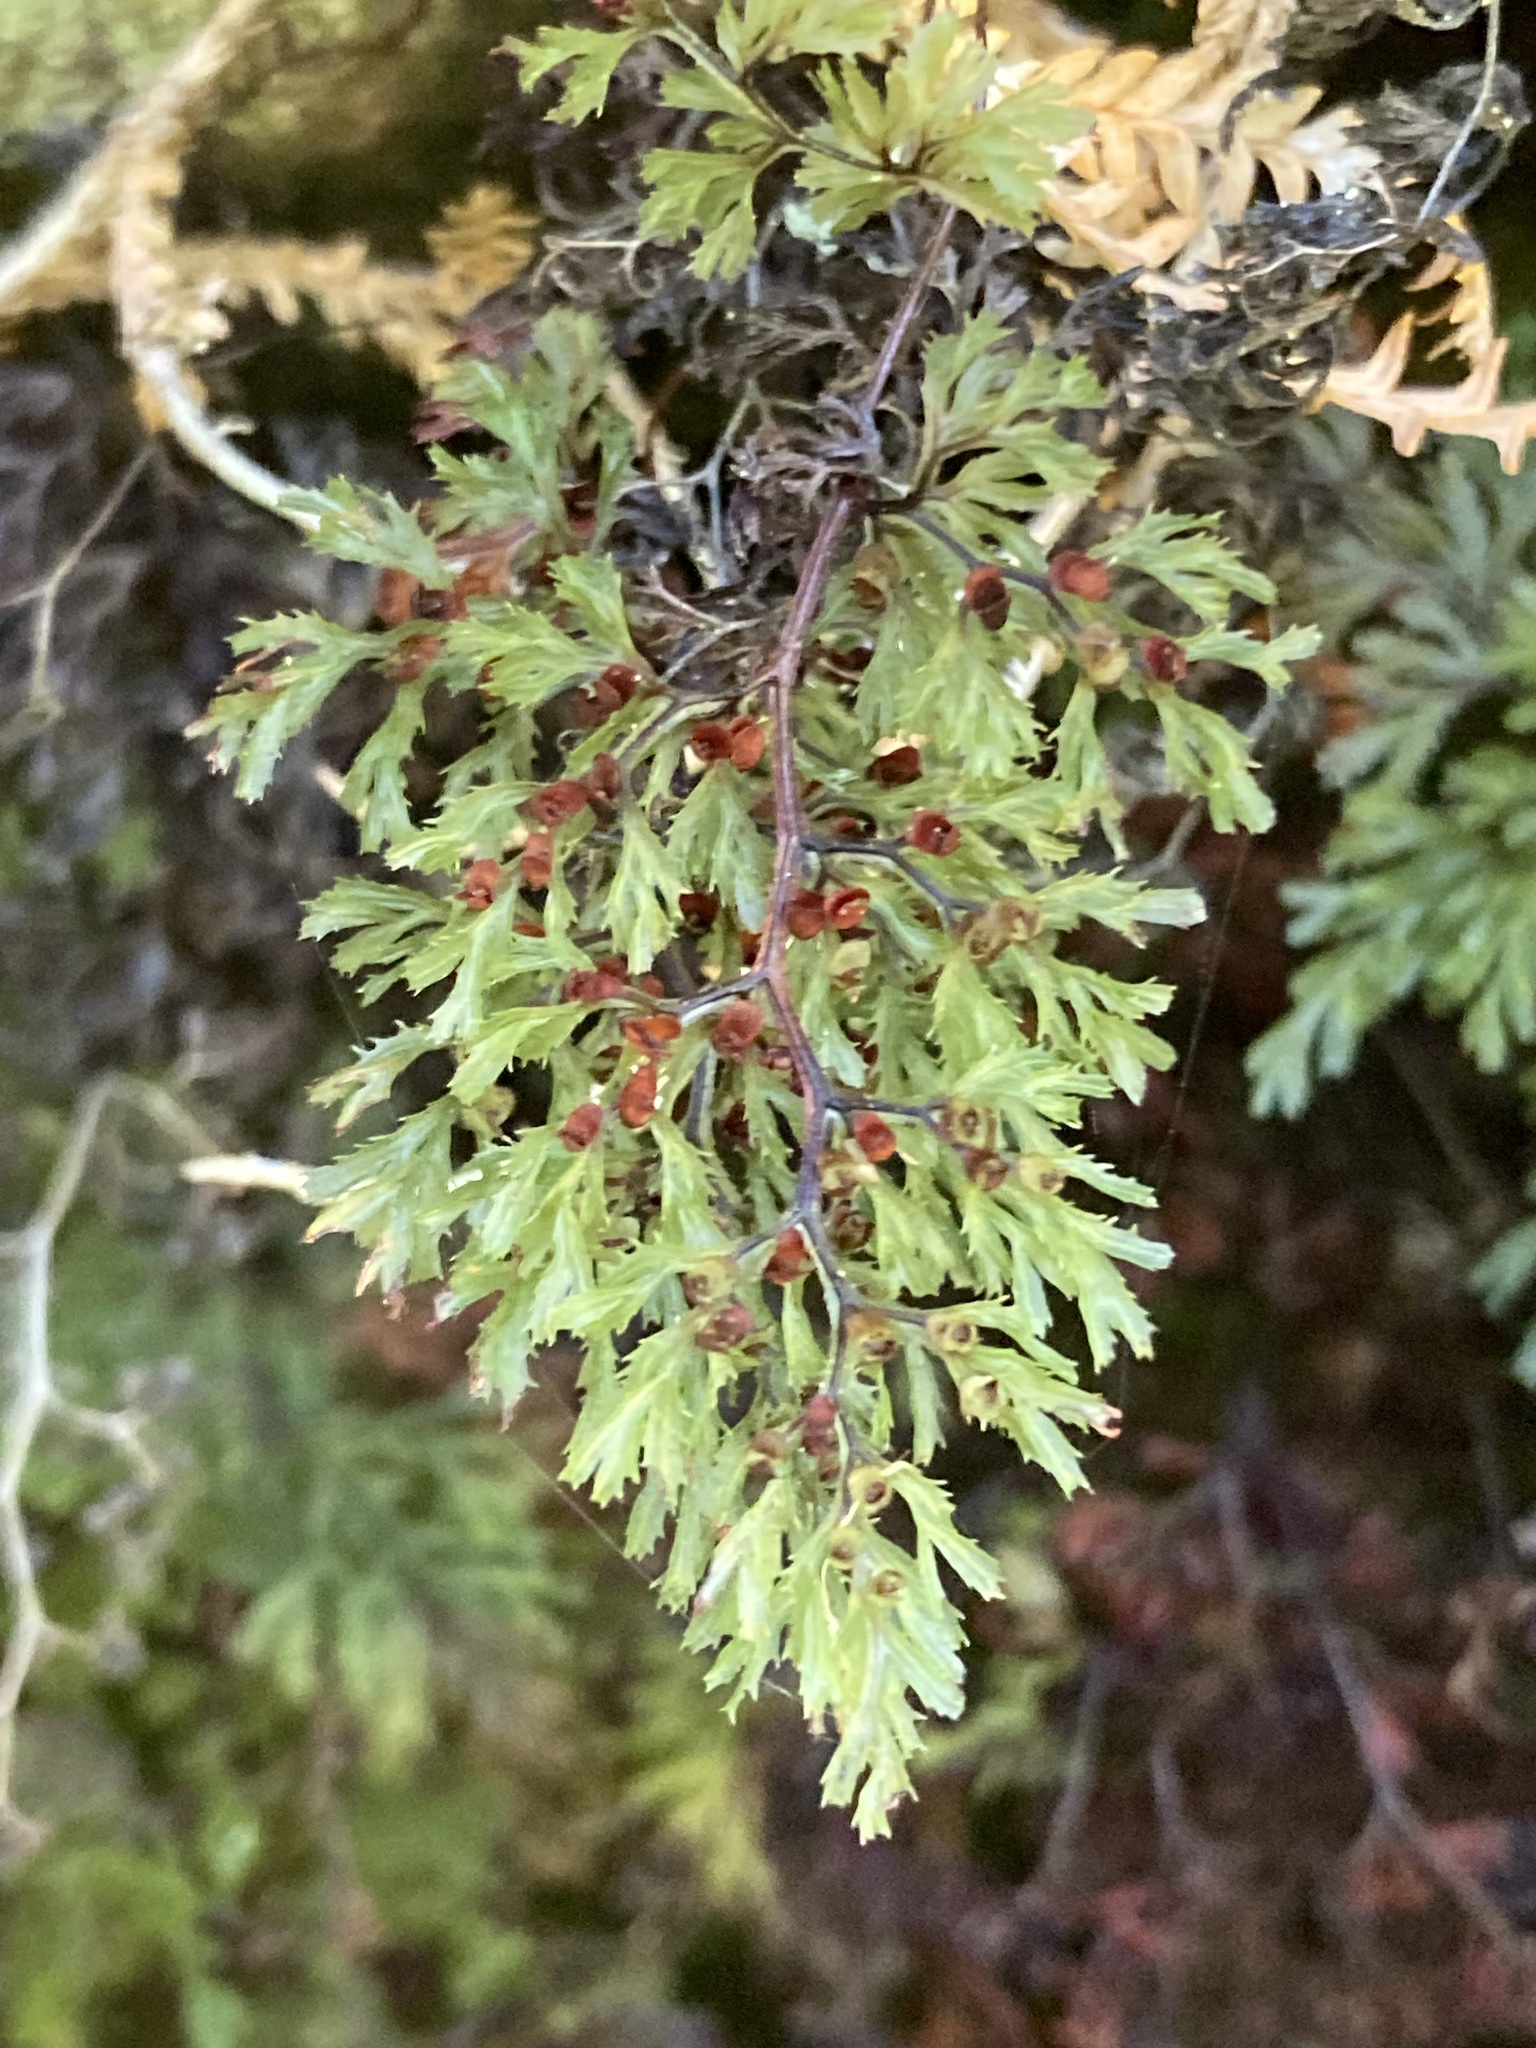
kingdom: Plantae
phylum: Tracheophyta
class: Polypodiopsida
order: Hymenophyllales
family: Hymenophyllaceae
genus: Hymenophyllum
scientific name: Hymenophyllum multifidum
